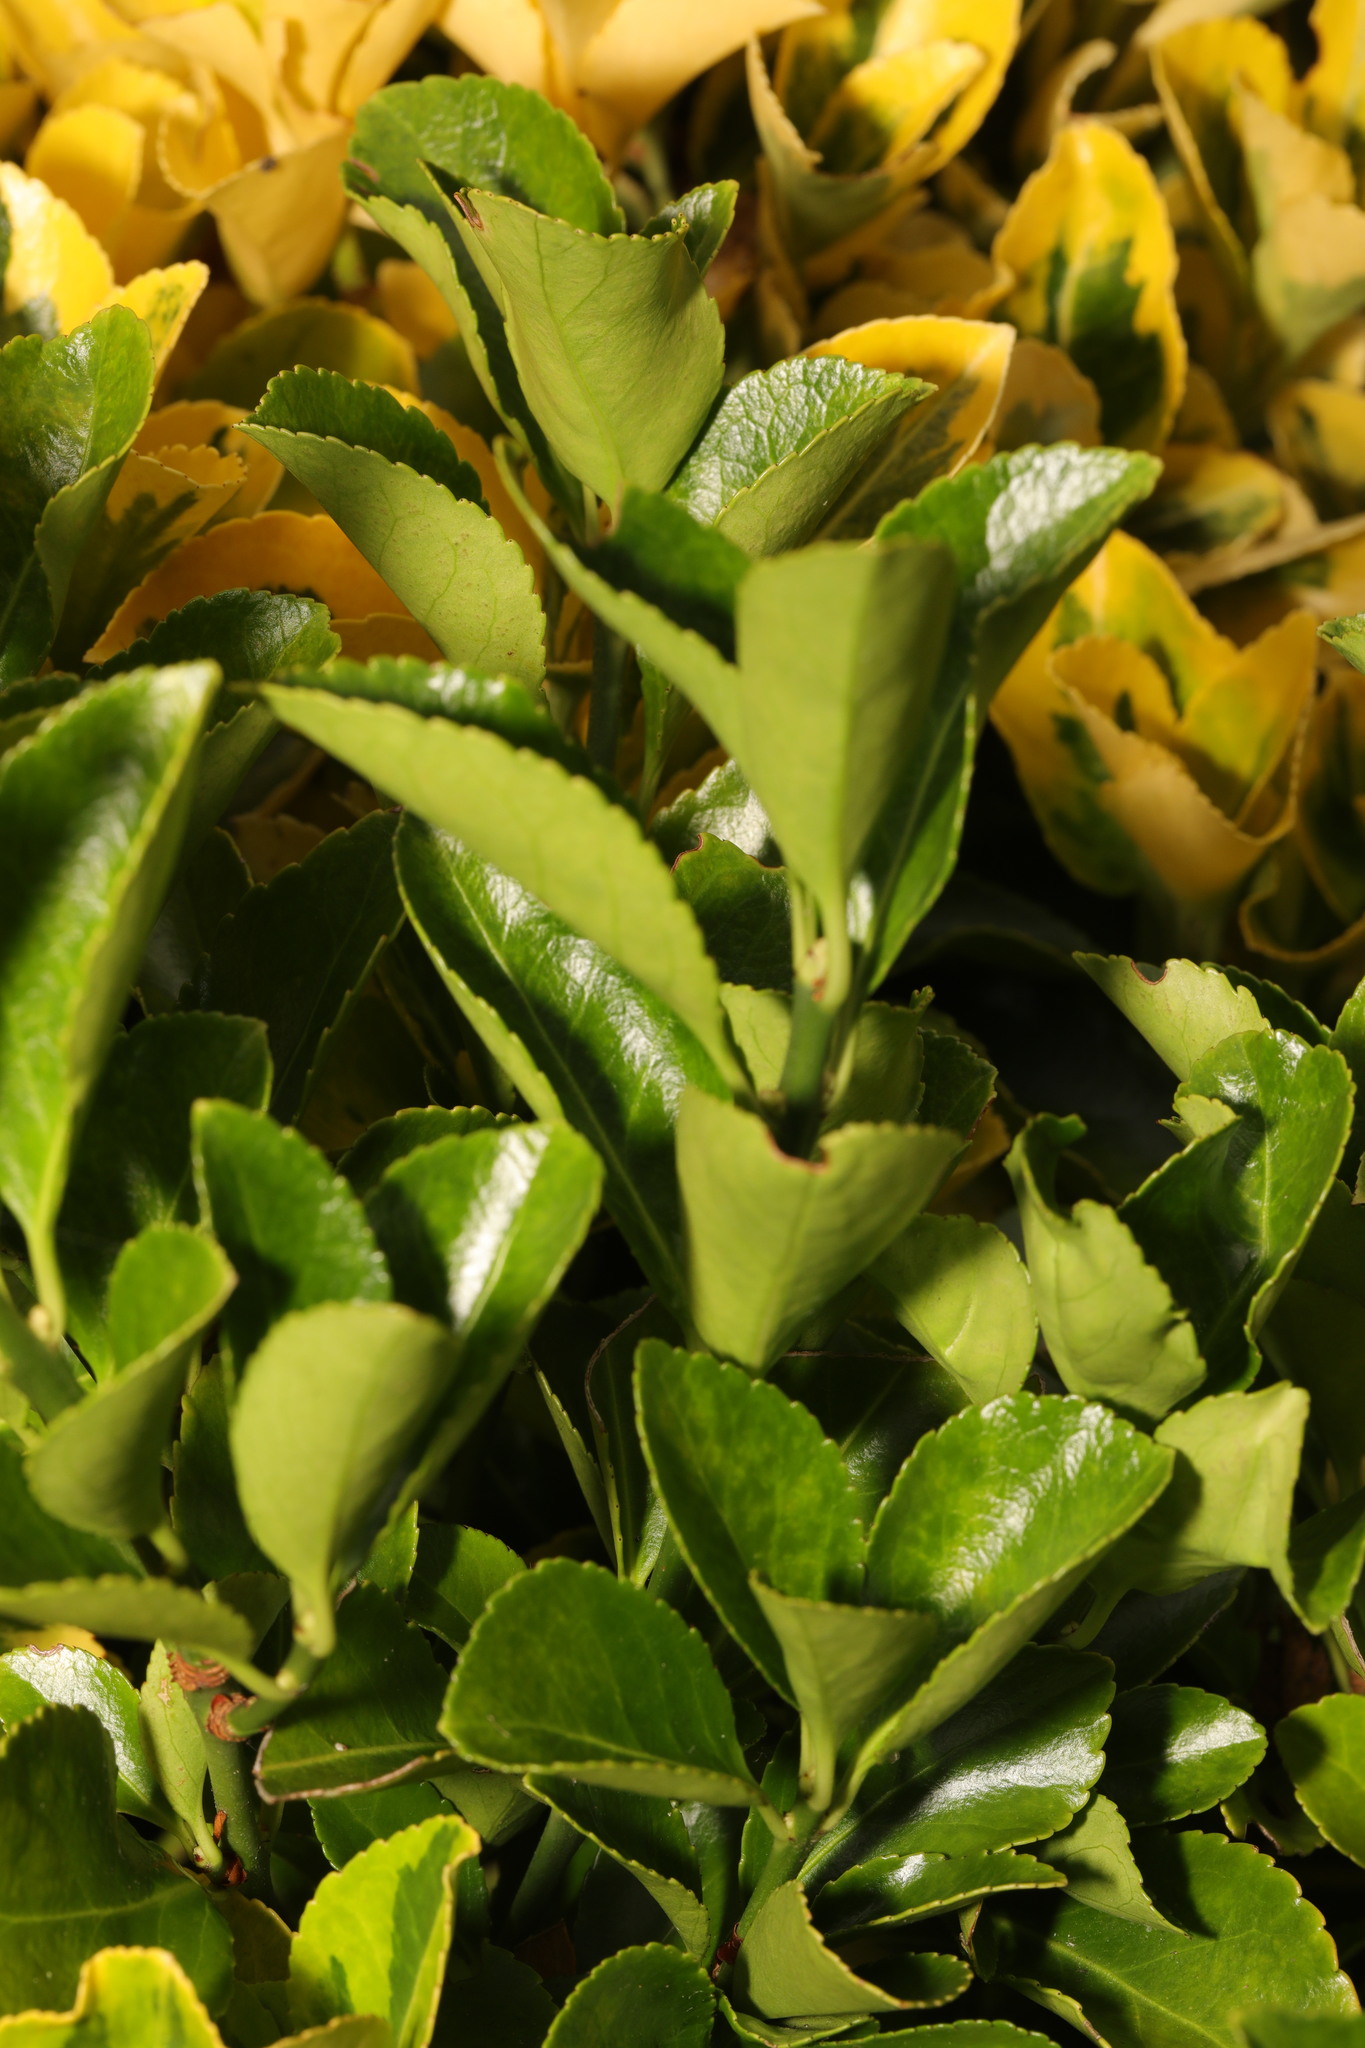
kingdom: Plantae
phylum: Tracheophyta
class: Magnoliopsida
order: Celastrales
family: Celastraceae
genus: Euonymus
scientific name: Euonymus japonicus
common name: Japanese spindletree
